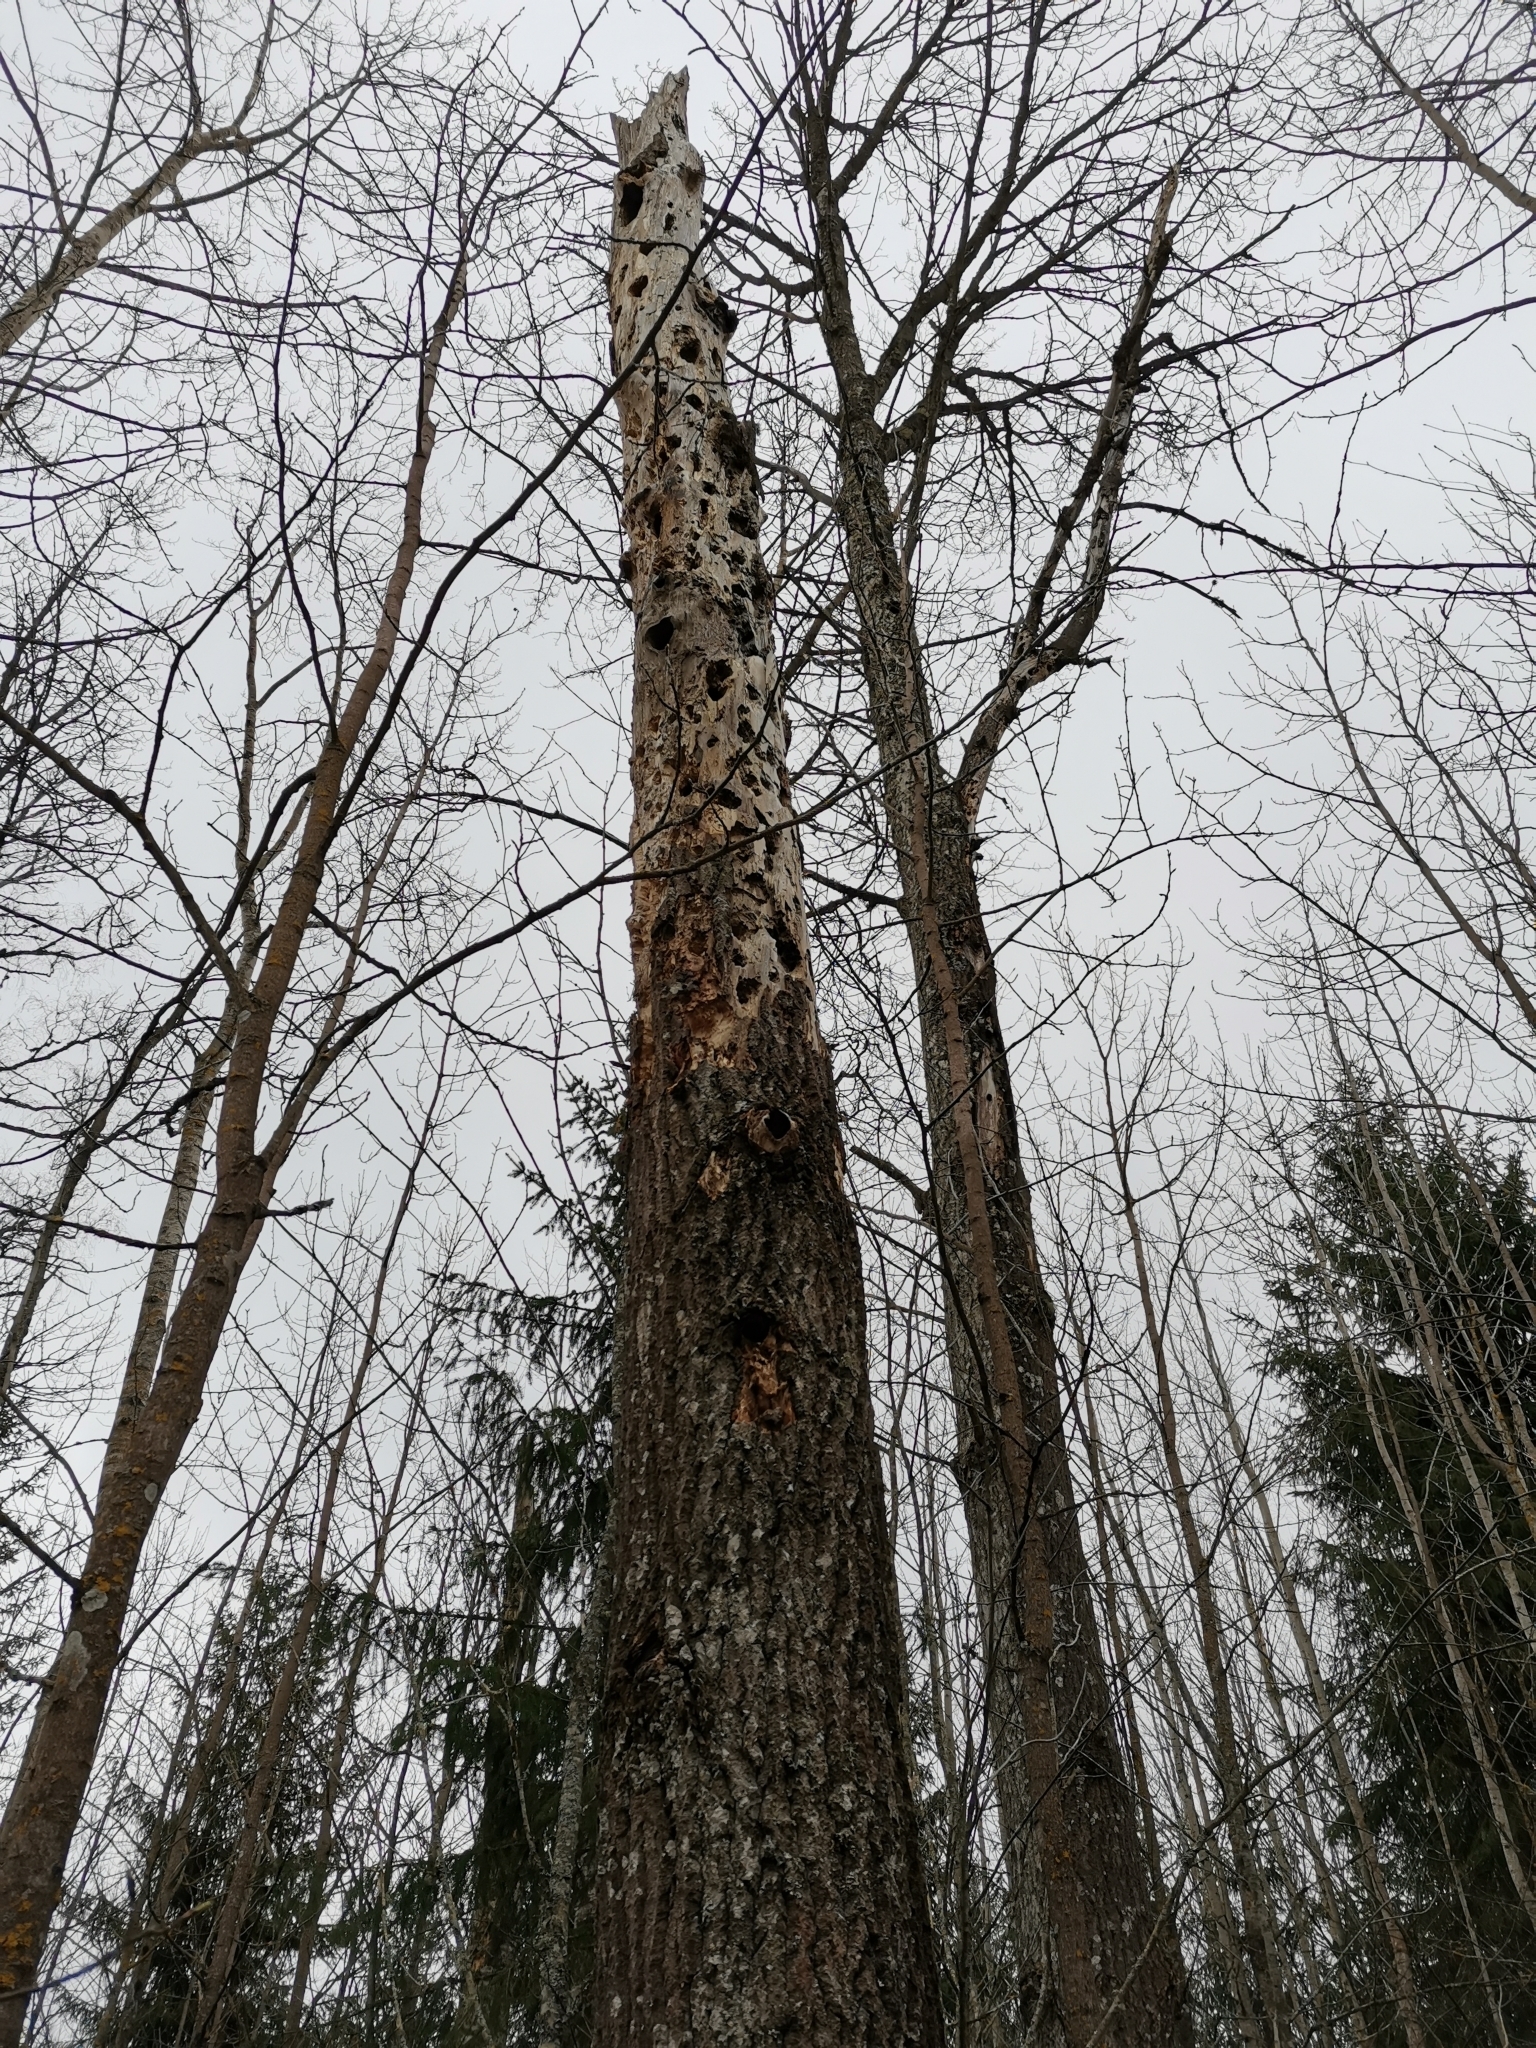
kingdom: Animalia
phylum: Chordata
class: Mammalia
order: Rodentia
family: Sciuridae
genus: Pteromys
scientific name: Pteromys volans
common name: Siberian flying squirrel
